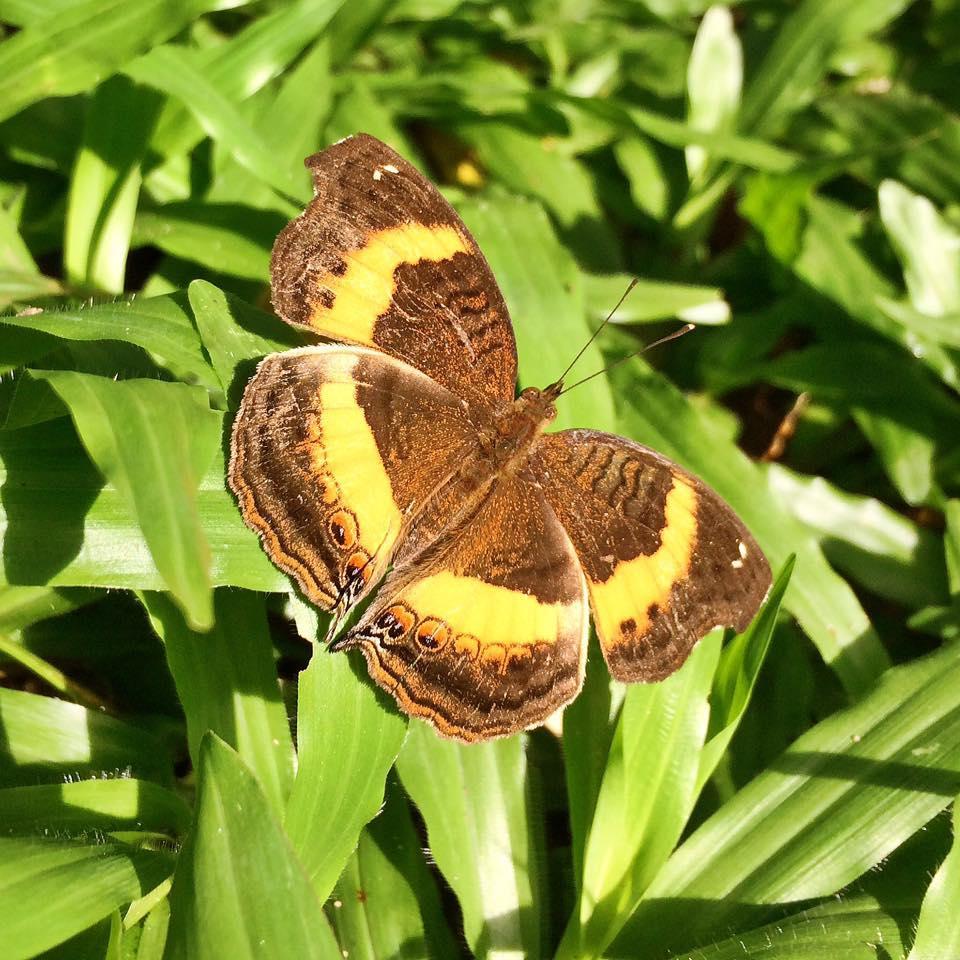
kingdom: Animalia
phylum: Arthropoda
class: Insecta
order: Lepidoptera
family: Nymphalidae
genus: Junonia
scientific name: Junonia terea
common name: Soldier pansy
